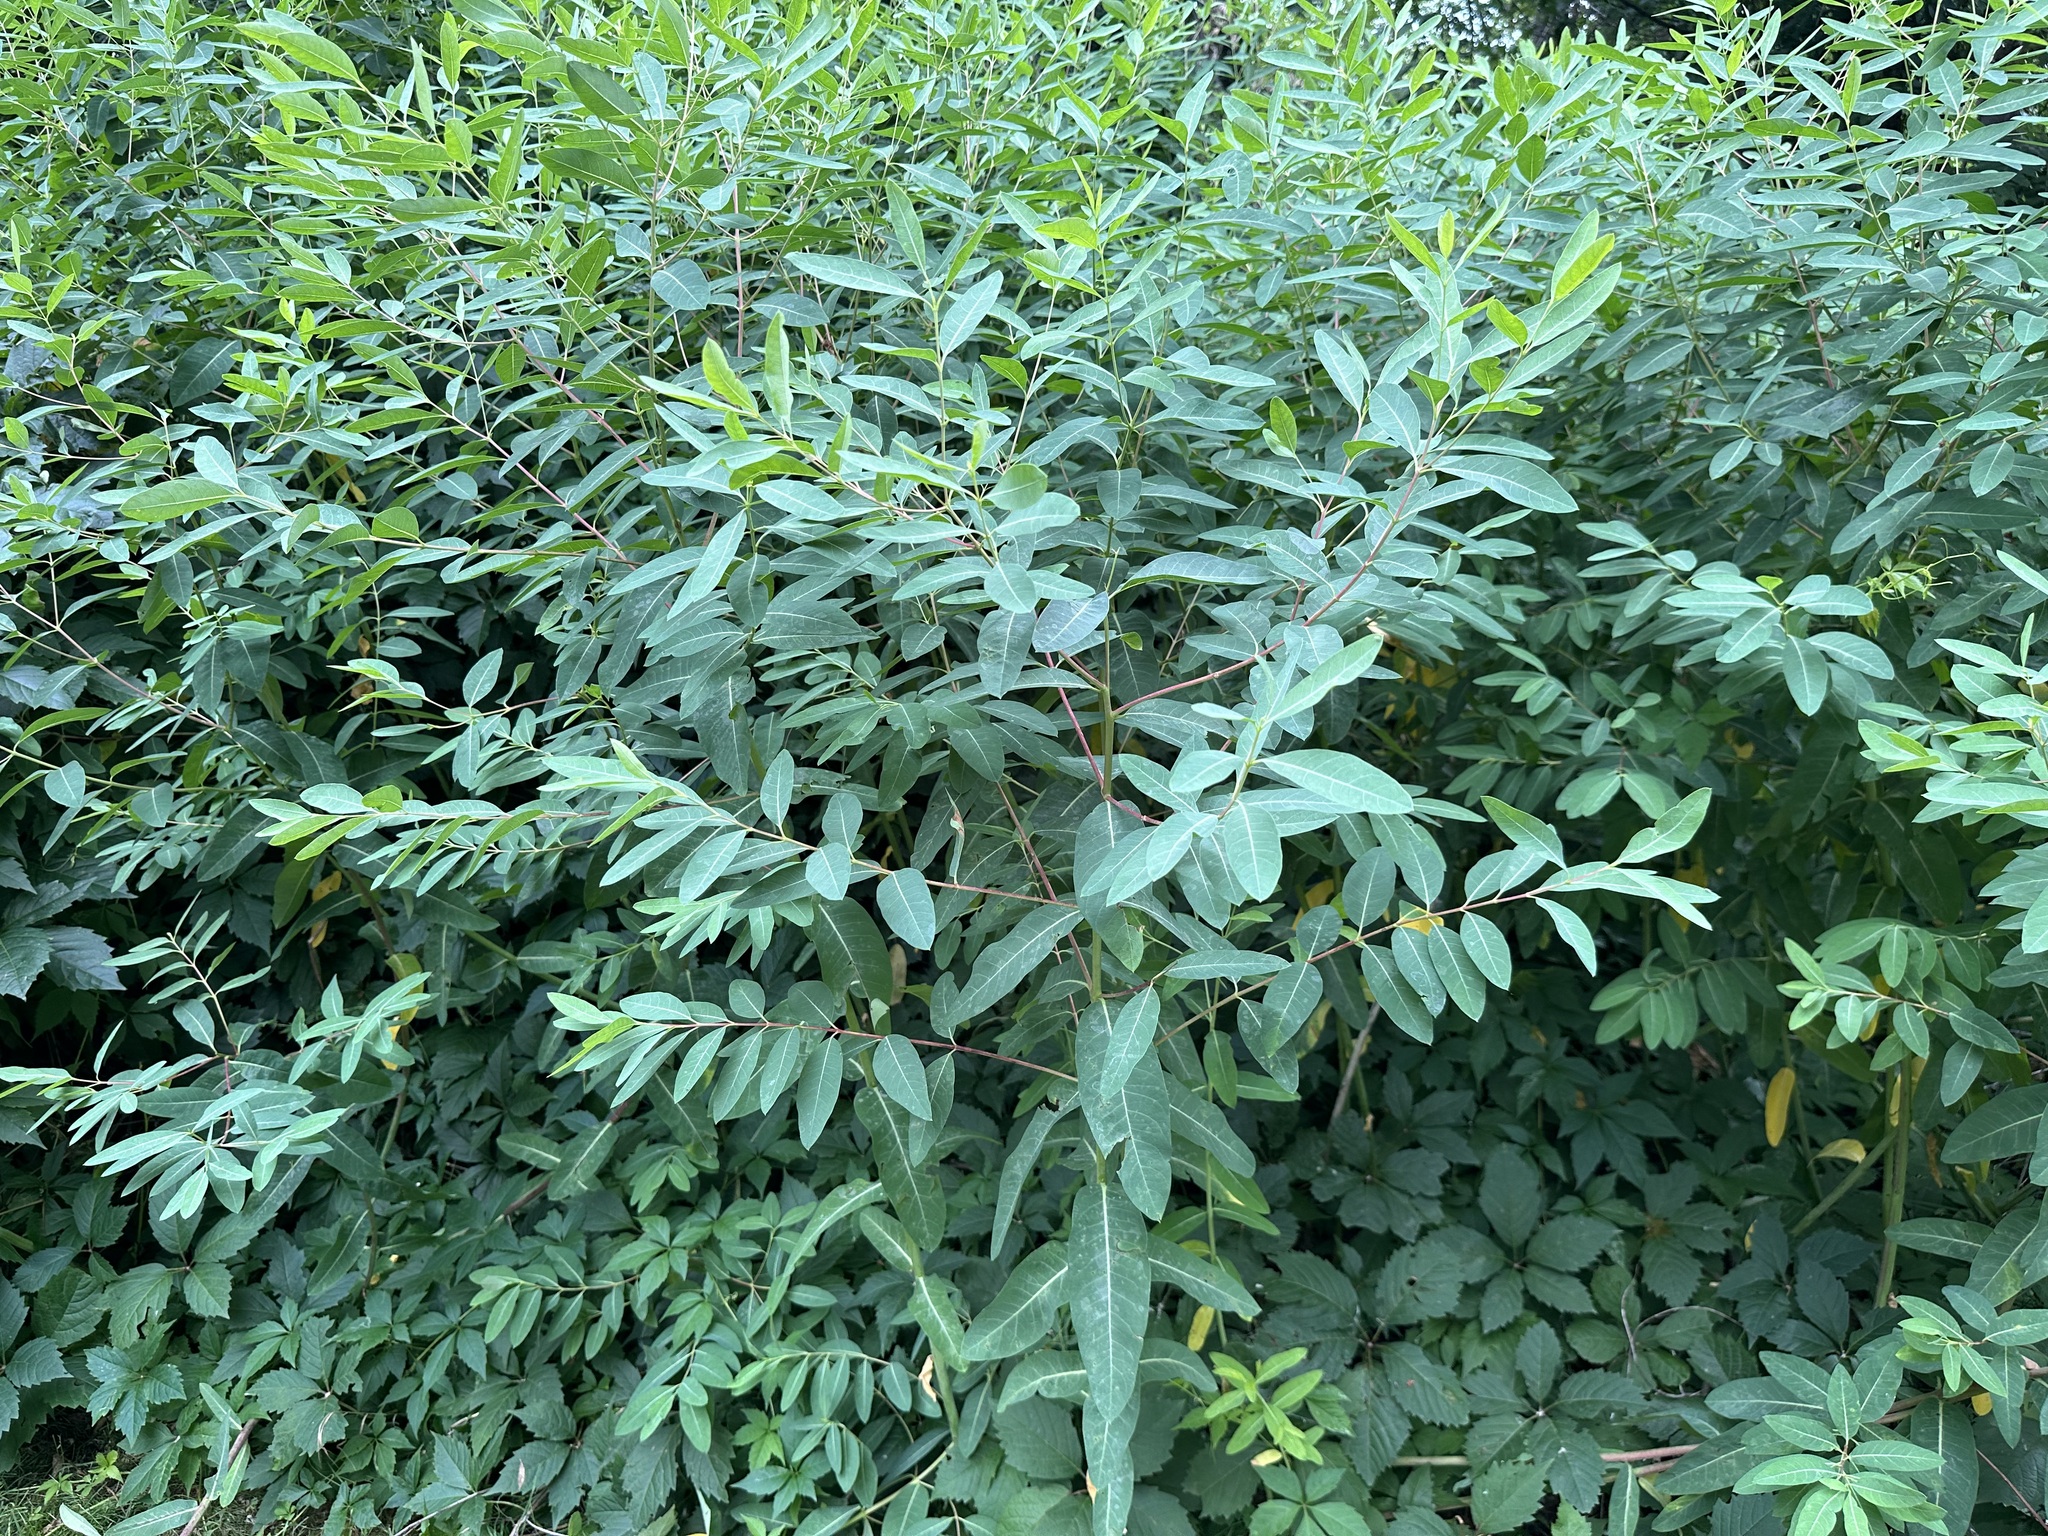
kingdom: Plantae
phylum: Tracheophyta
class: Magnoliopsida
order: Gentianales
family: Apocynaceae
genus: Apocynum
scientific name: Apocynum cannabinum
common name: Hemp dogbane
